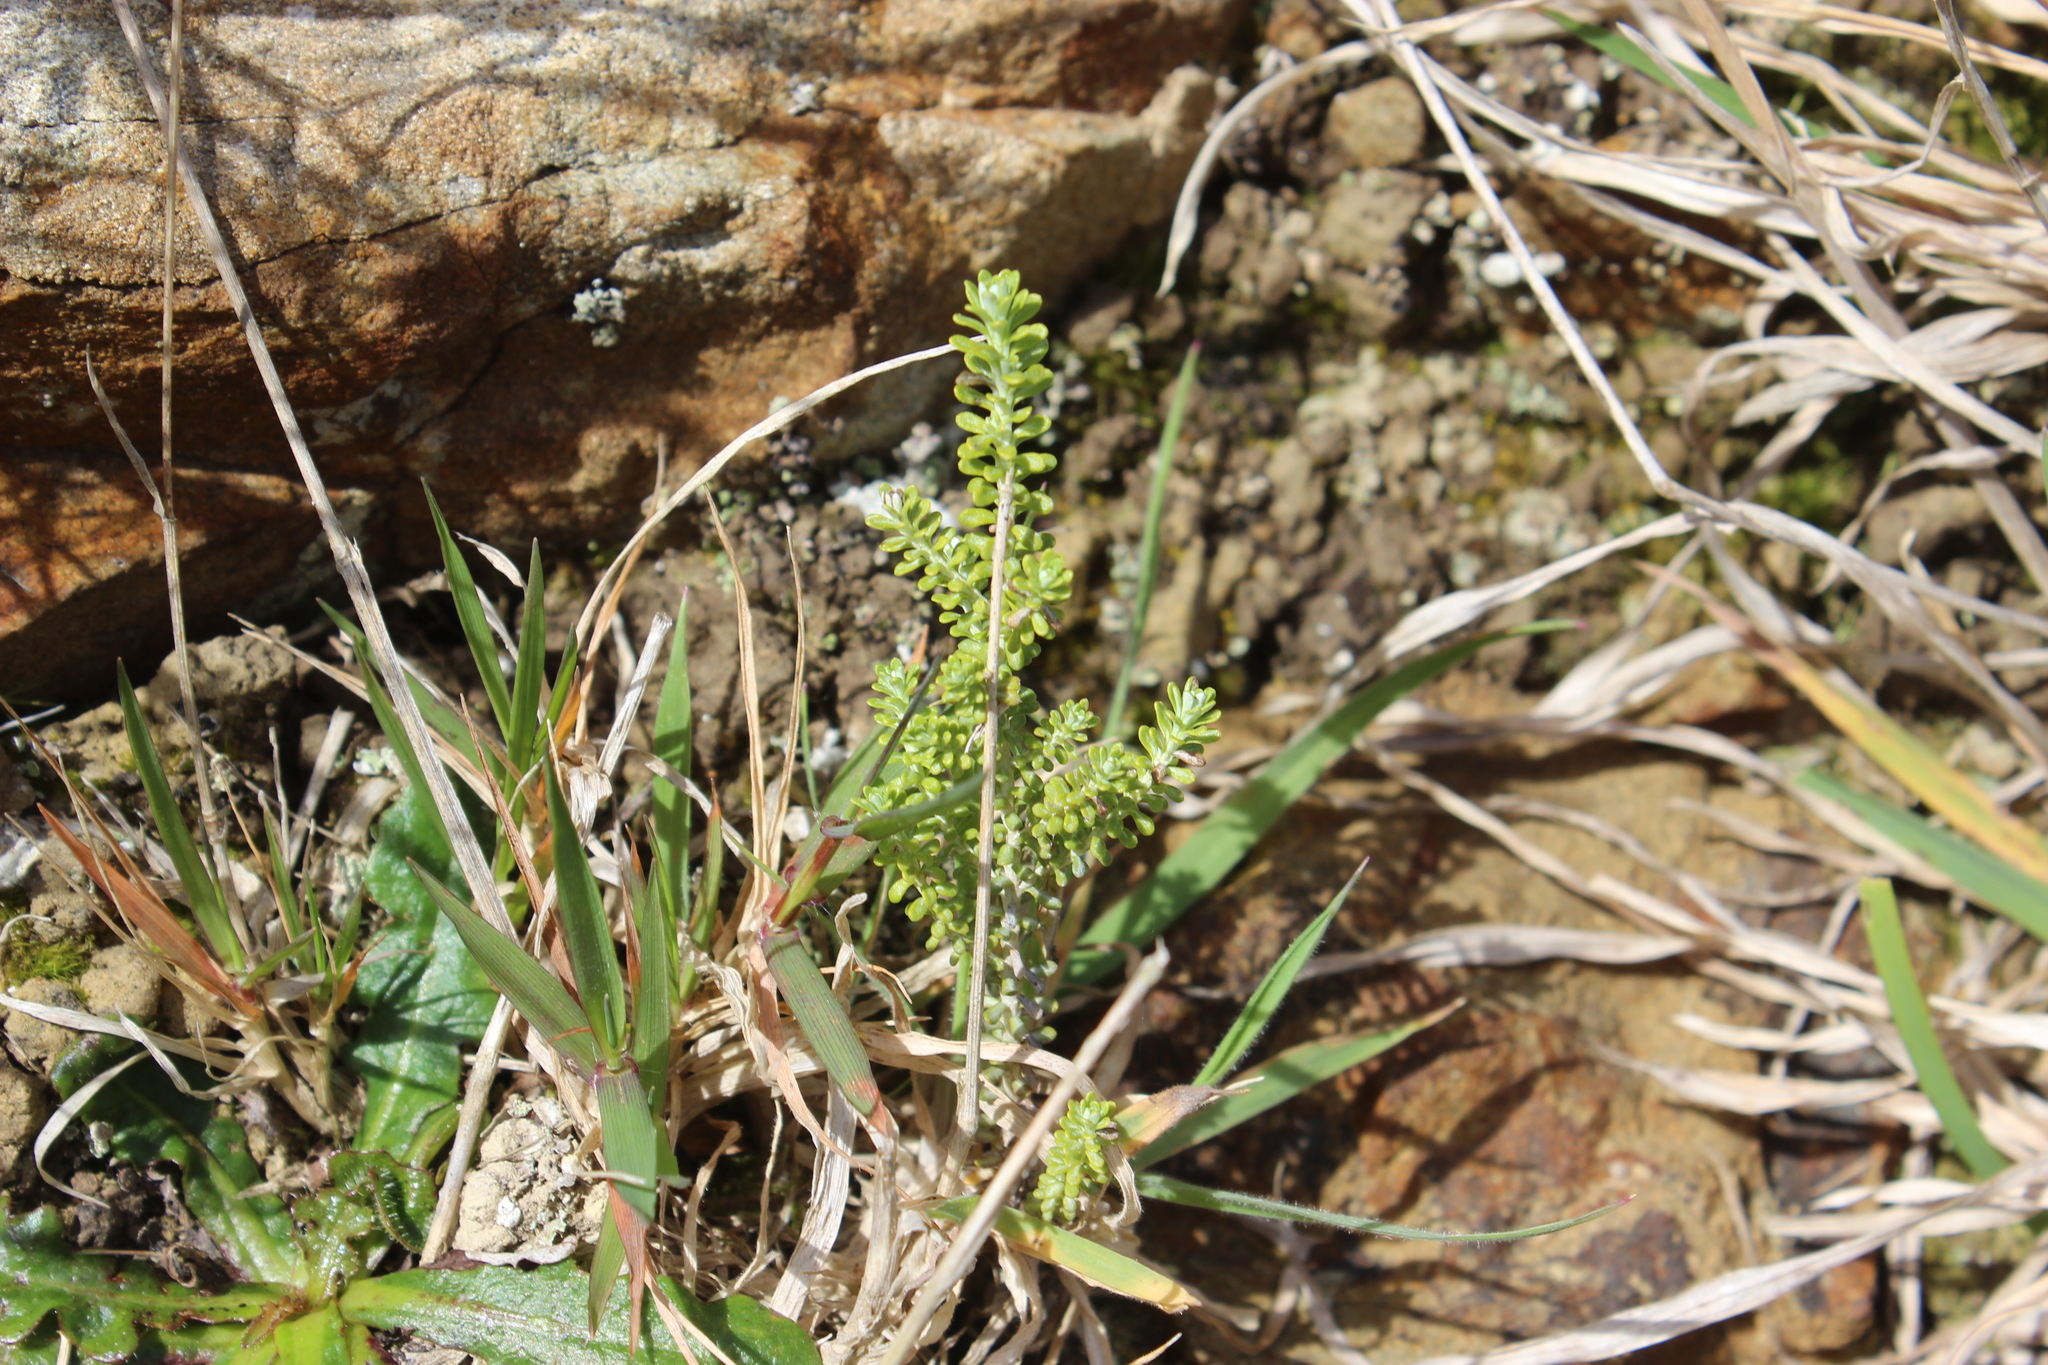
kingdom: Plantae
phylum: Tracheophyta
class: Magnoliopsida
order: Asterales
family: Asteraceae
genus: Ozothamnus
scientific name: Ozothamnus leptophyllus
